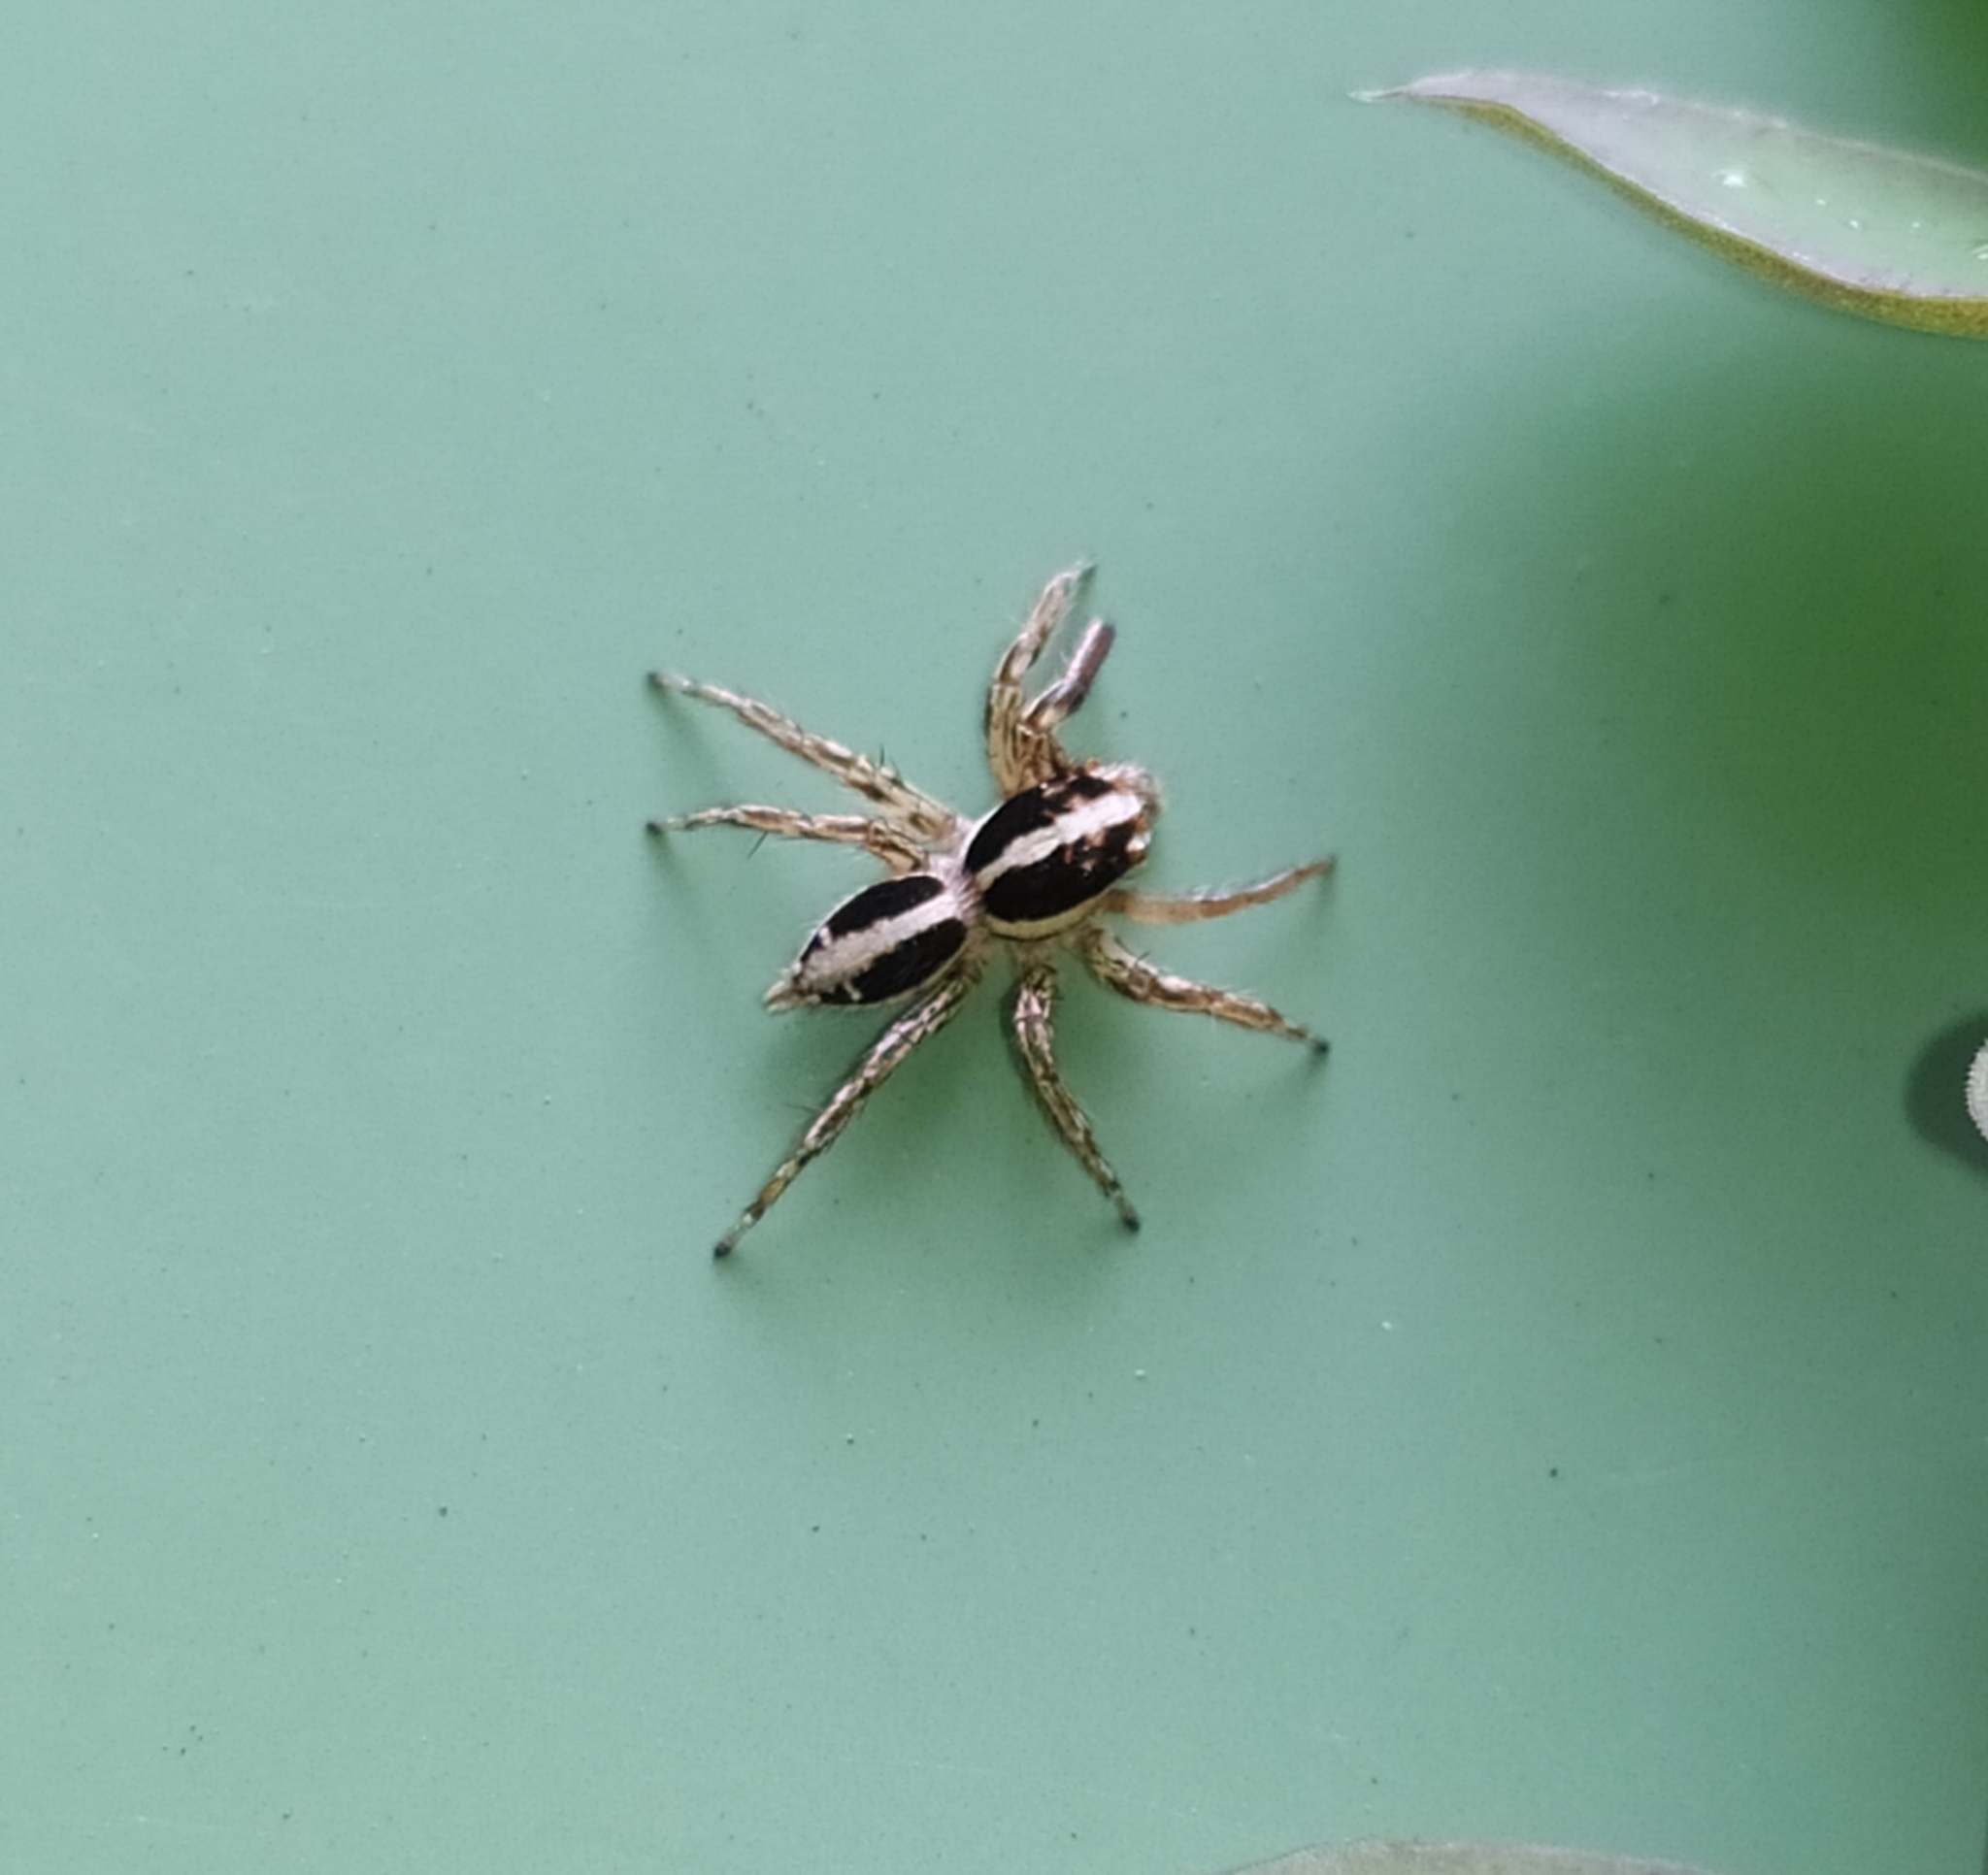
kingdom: Animalia
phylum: Arthropoda
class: Arachnida
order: Araneae
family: Salticidae
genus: Plexippus
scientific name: Plexippus paykulli
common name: Pantropical jumper
